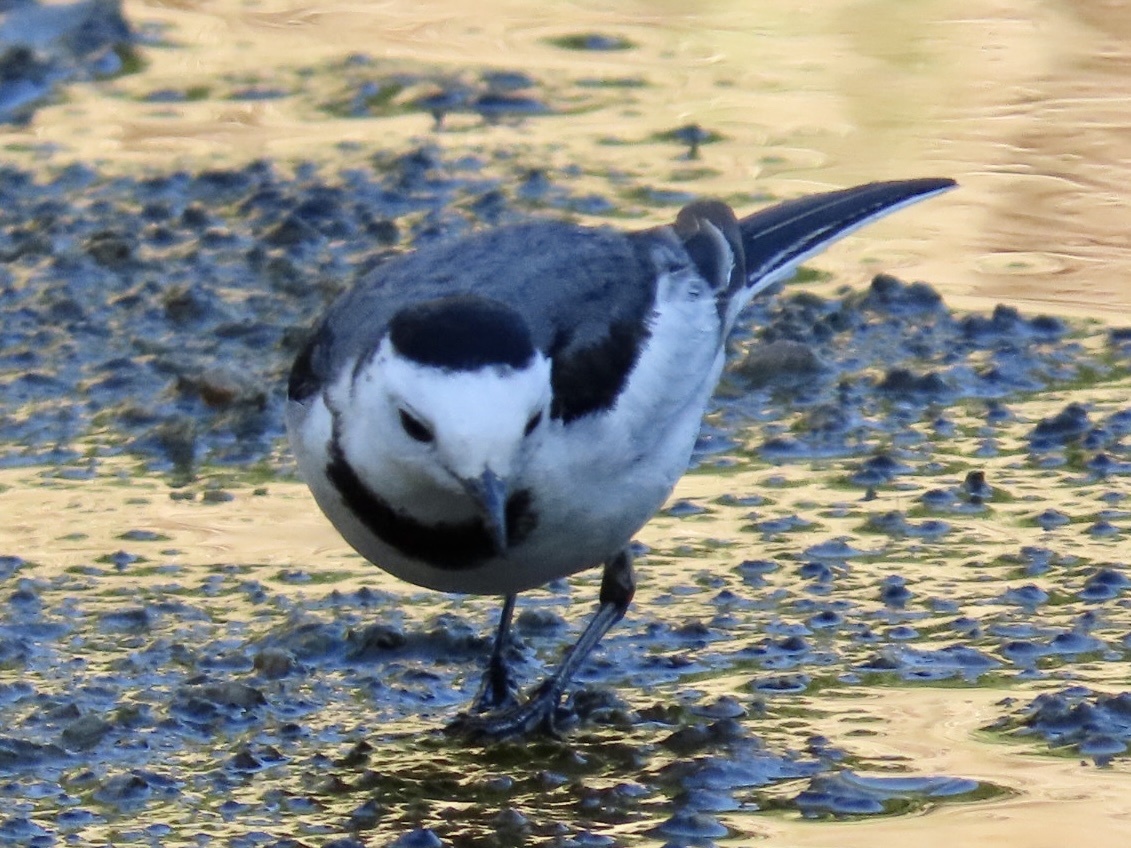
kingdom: Animalia
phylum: Chordata
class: Aves
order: Passeriformes
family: Motacillidae
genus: Motacilla
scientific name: Motacilla alba
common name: White wagtail
